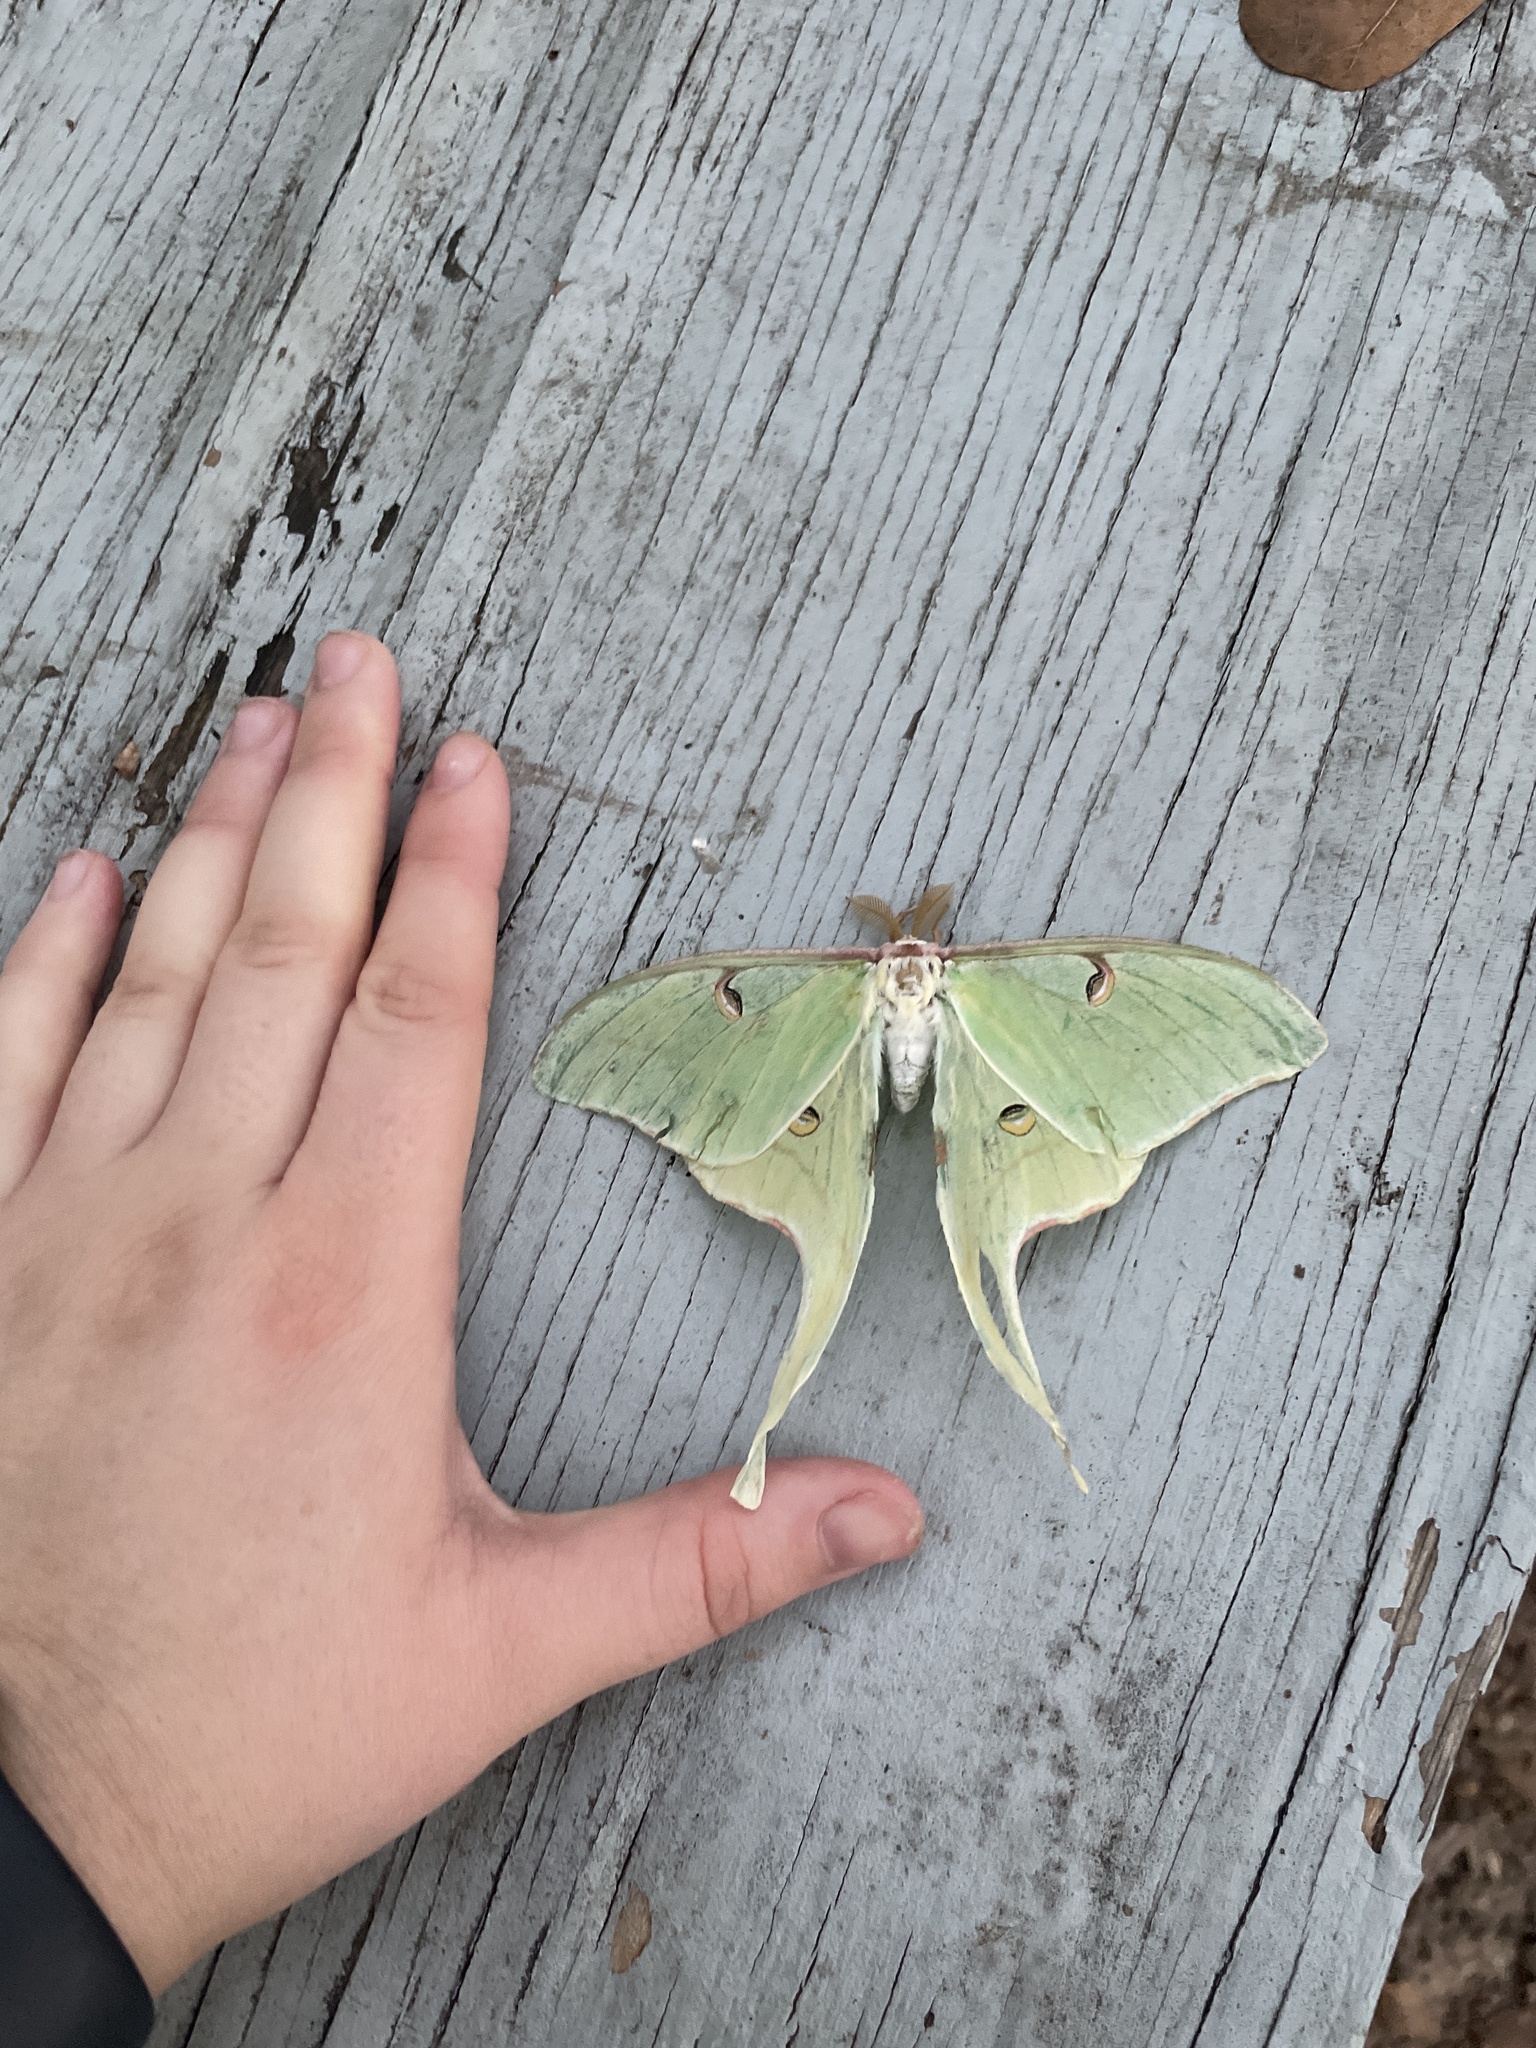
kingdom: Animalia
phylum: Arthropoda
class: Insecta
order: Lepidoptera
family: Saturniidae
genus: Actias
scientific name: Actias luna
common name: Luna moth
